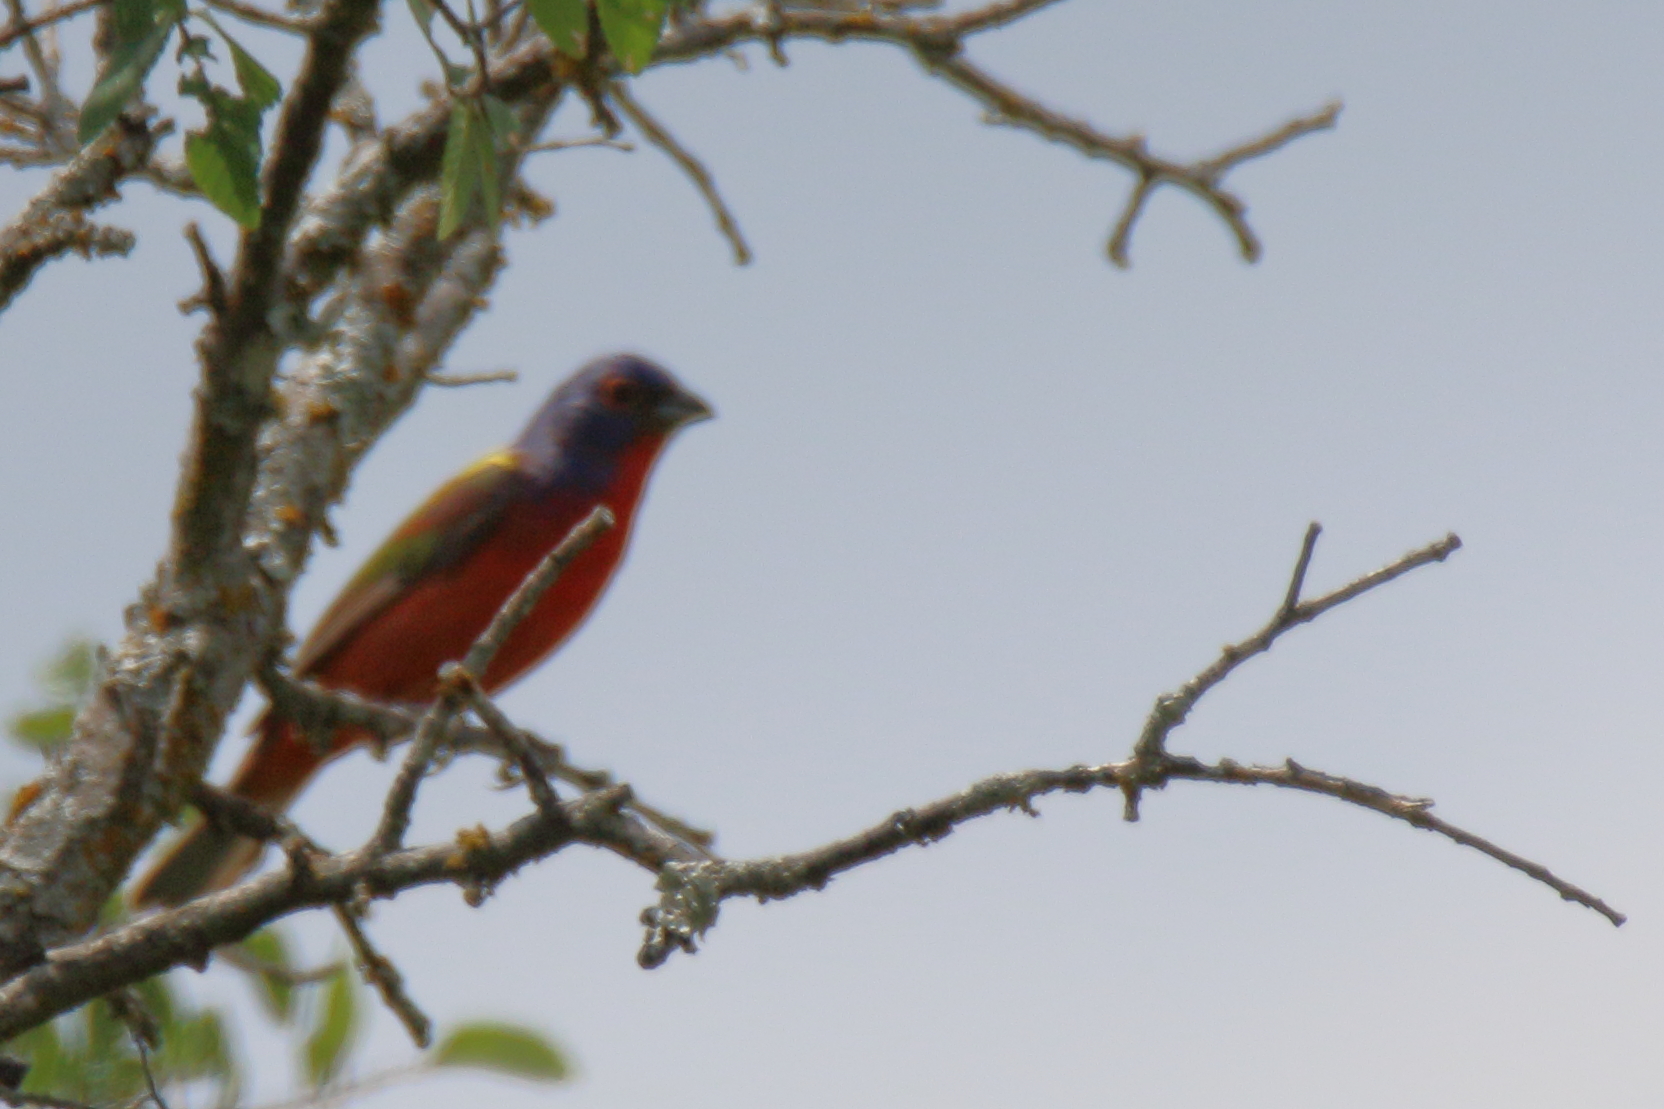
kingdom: Animalia
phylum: Chordata
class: Aves
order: Passeriformes
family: Cardinalidae
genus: Passerina
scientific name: Passerina ciris
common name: Painted bunting
